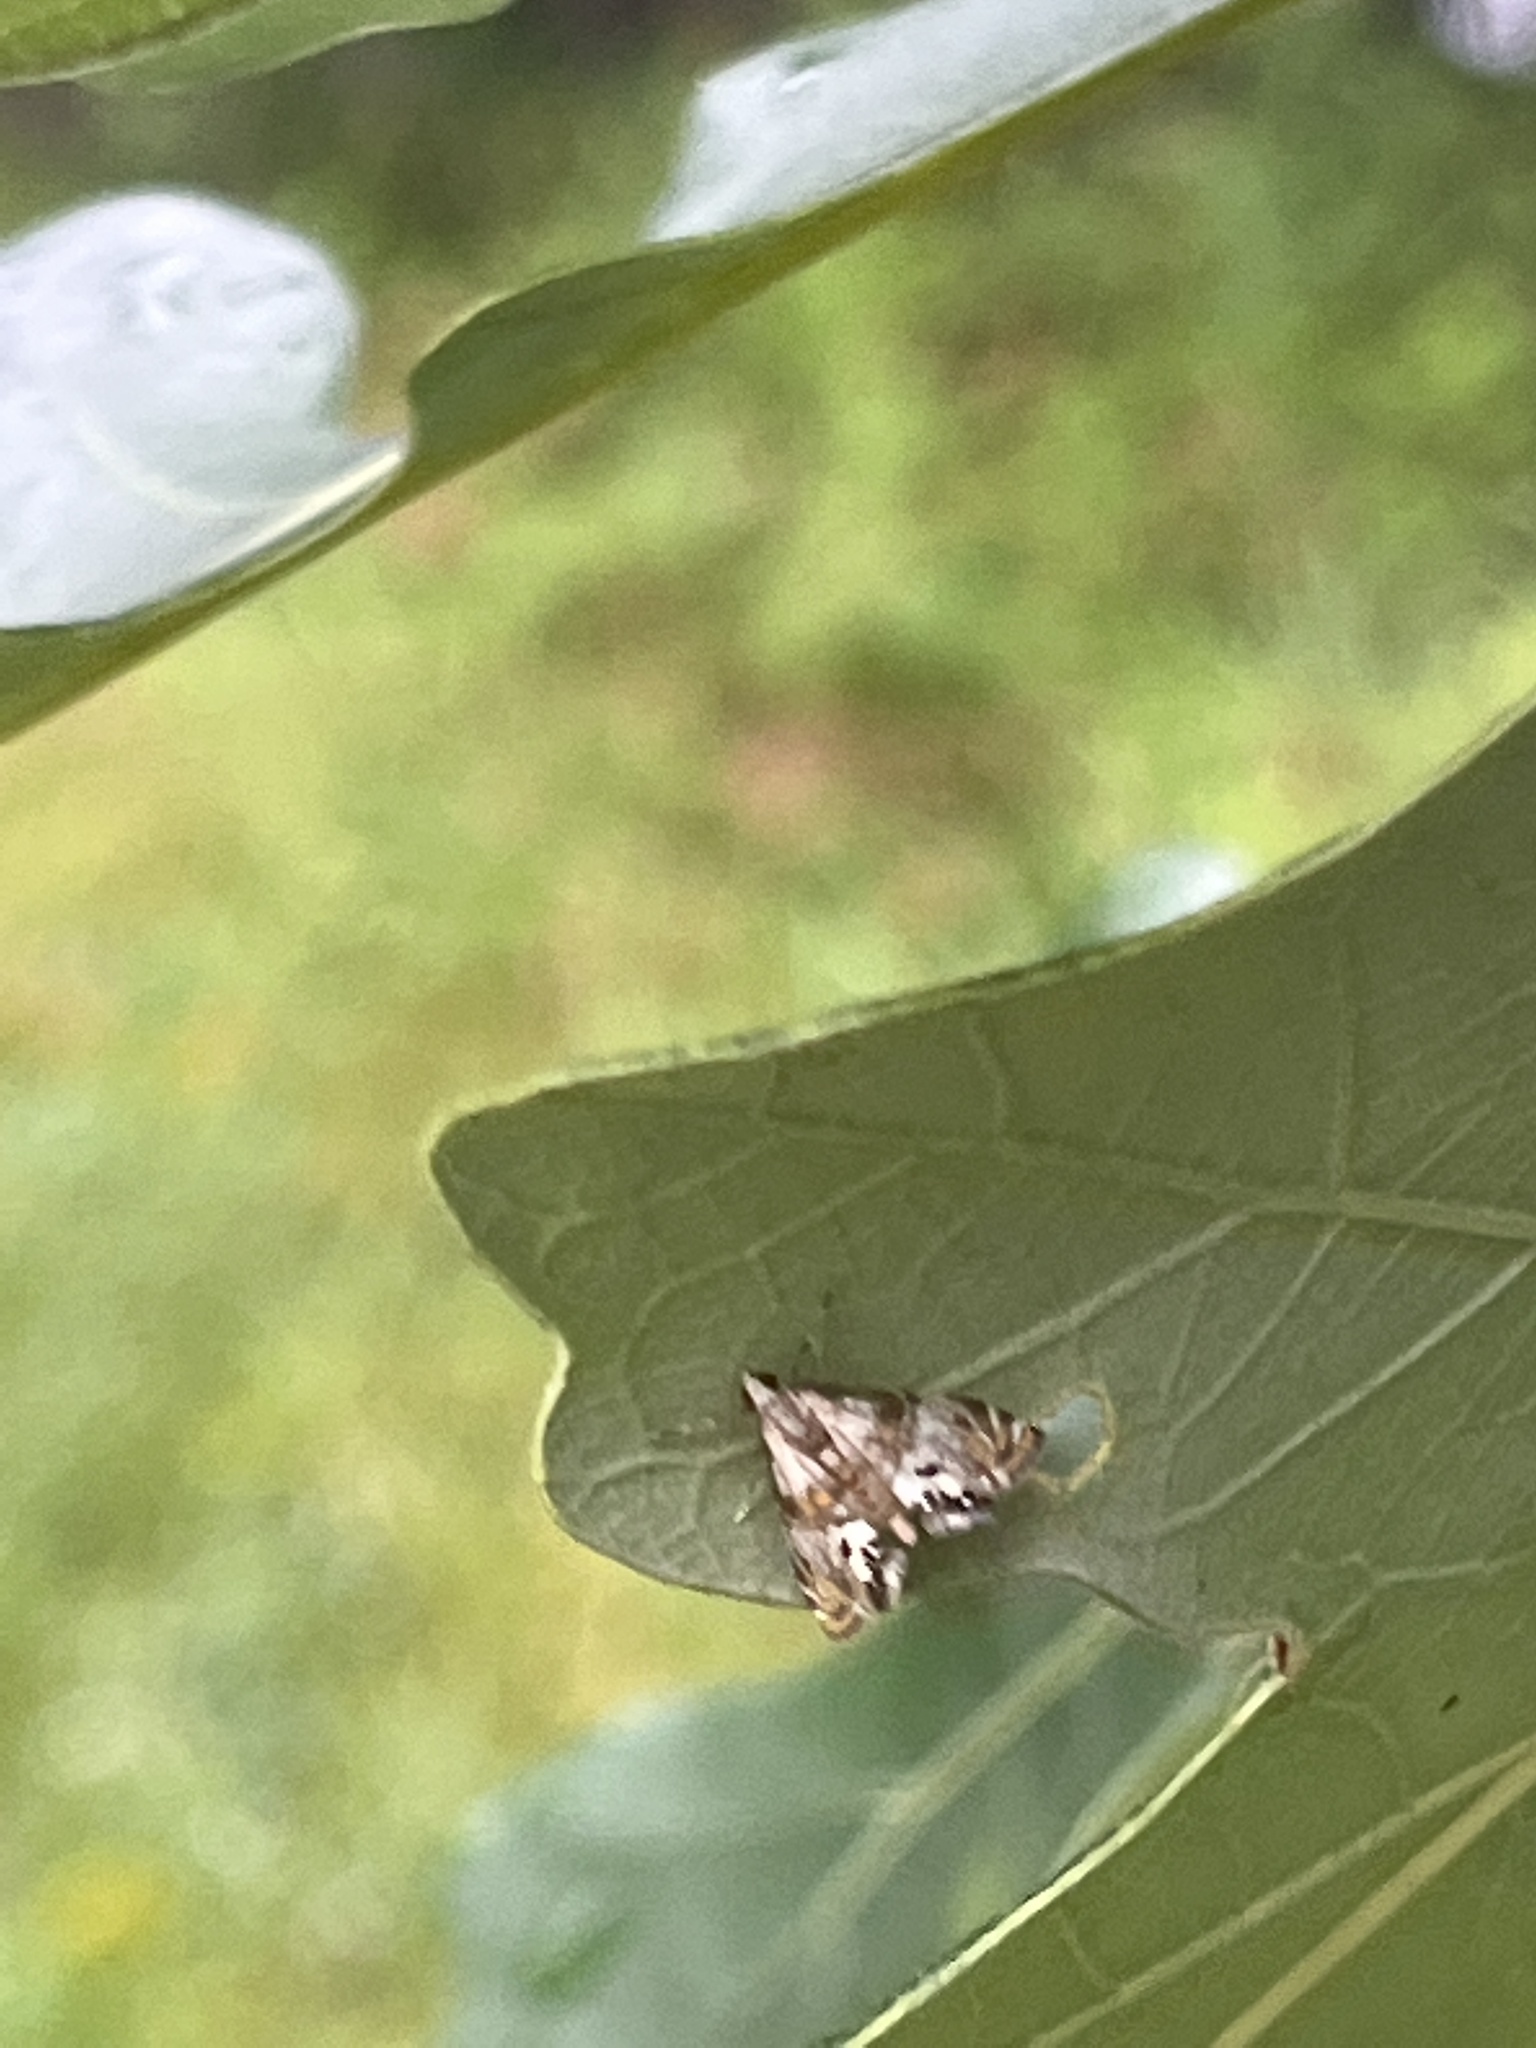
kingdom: Animalia
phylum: Arthropoda
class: Insecta
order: Lepidoptera
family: Crambidae
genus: Petrophila
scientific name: Petrophila bifascialis
